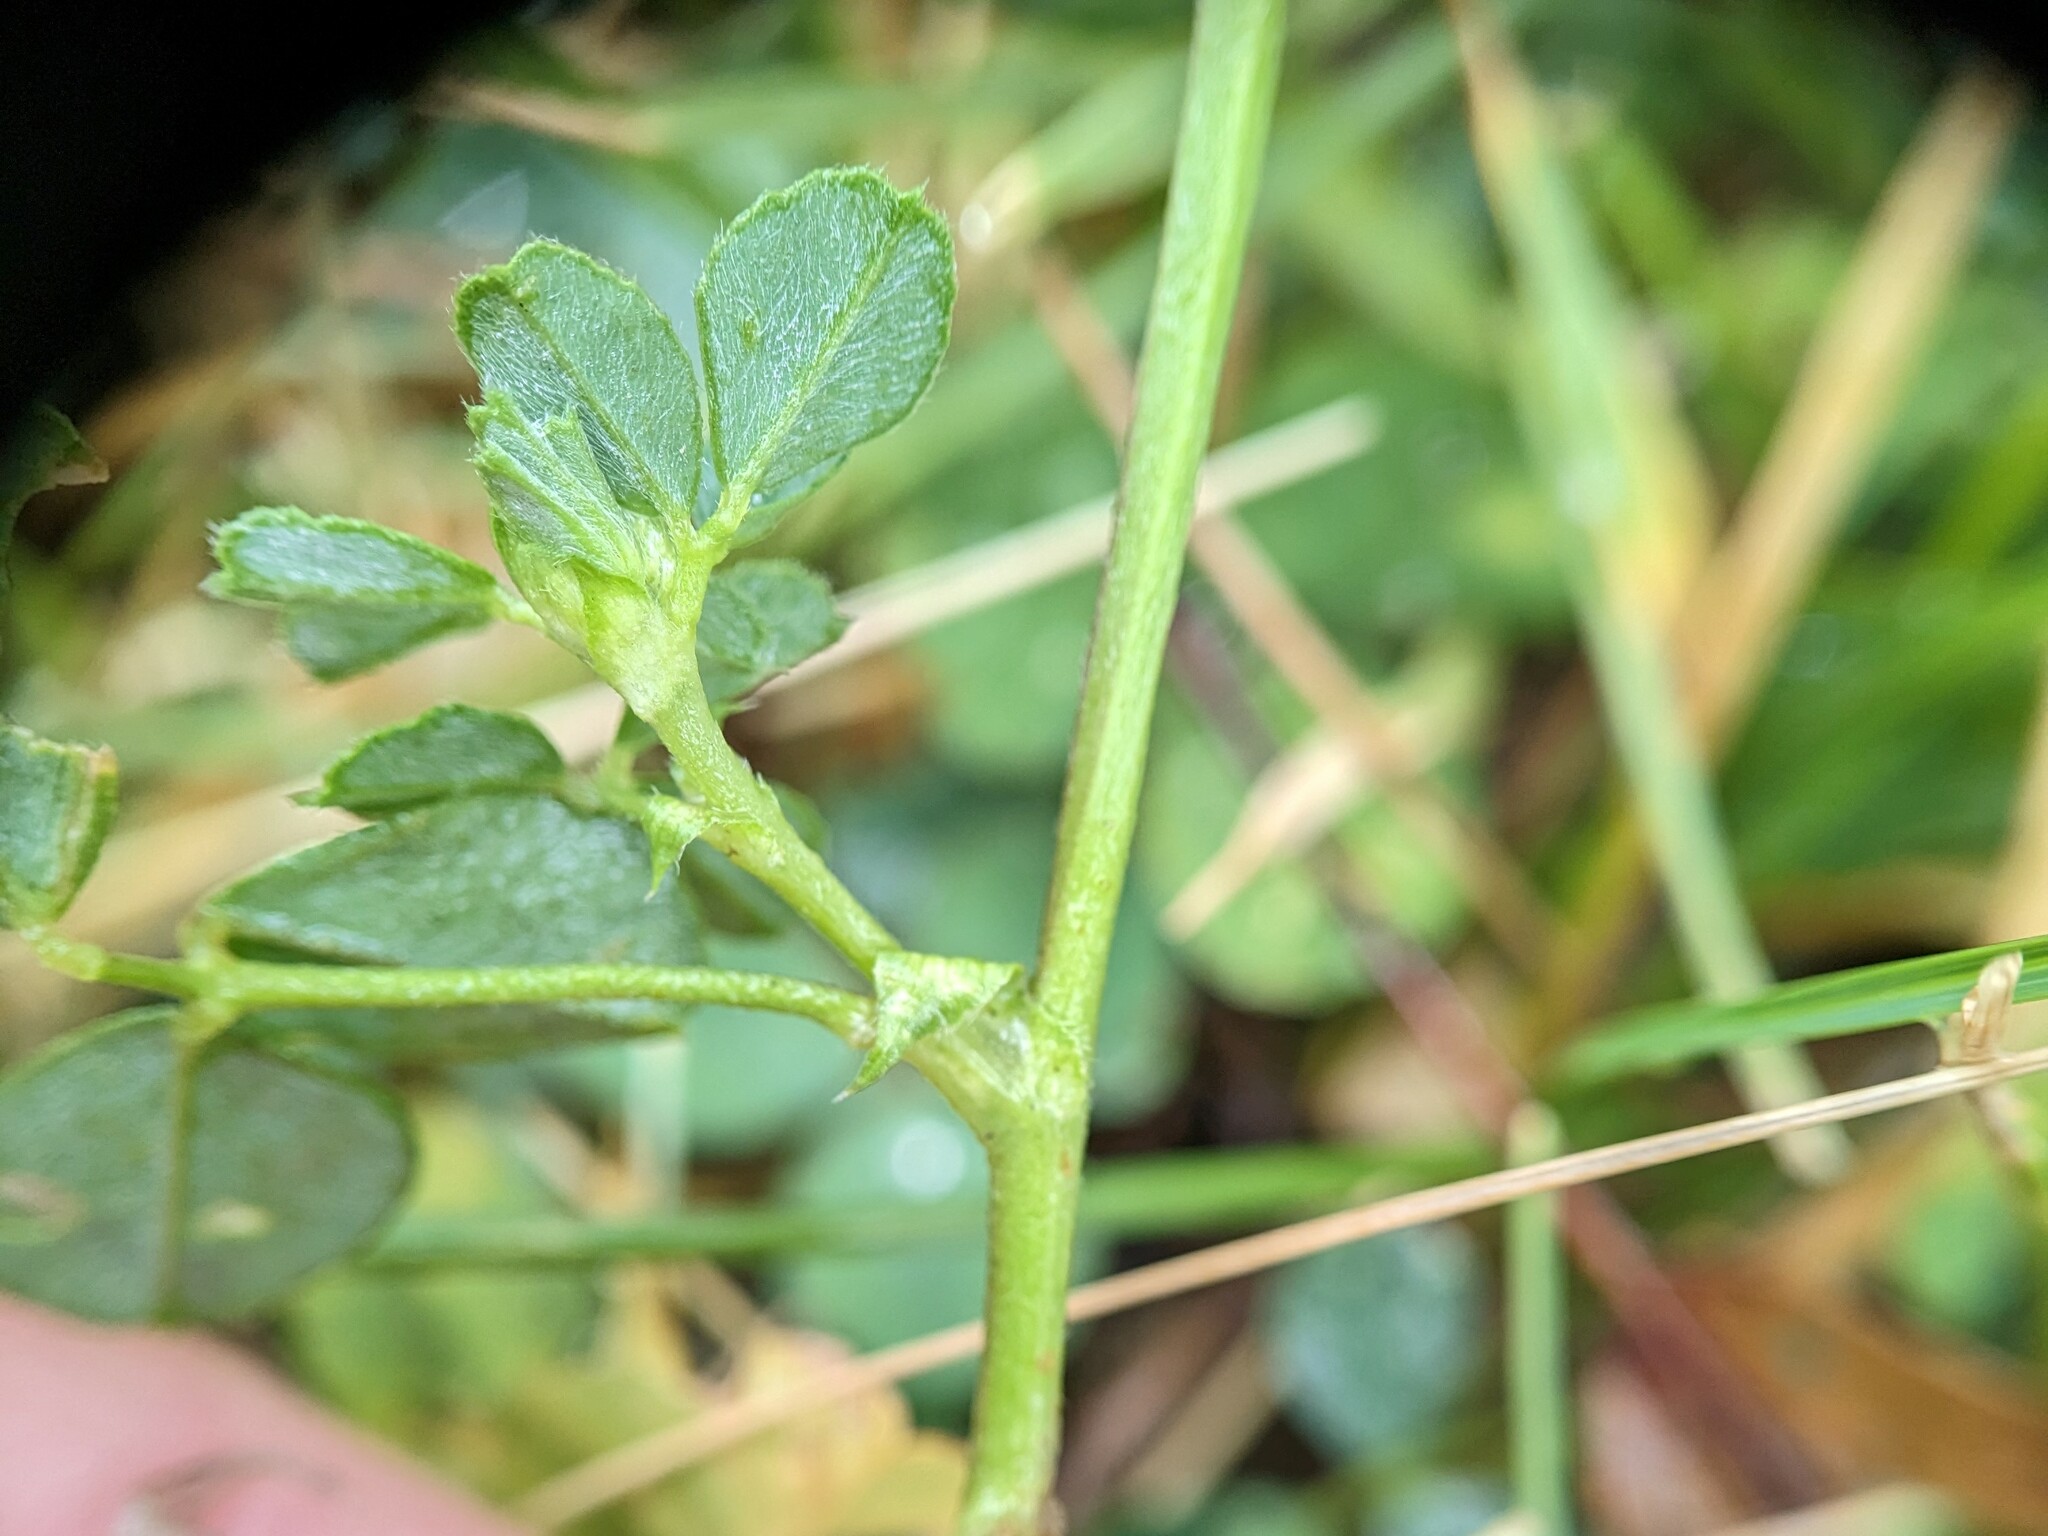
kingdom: Plantae
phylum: Tracheophyta
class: Magnoliopsida
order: Fabales
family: Fabaceae
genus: Medicago
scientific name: Medicago lupulina
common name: Black medick
